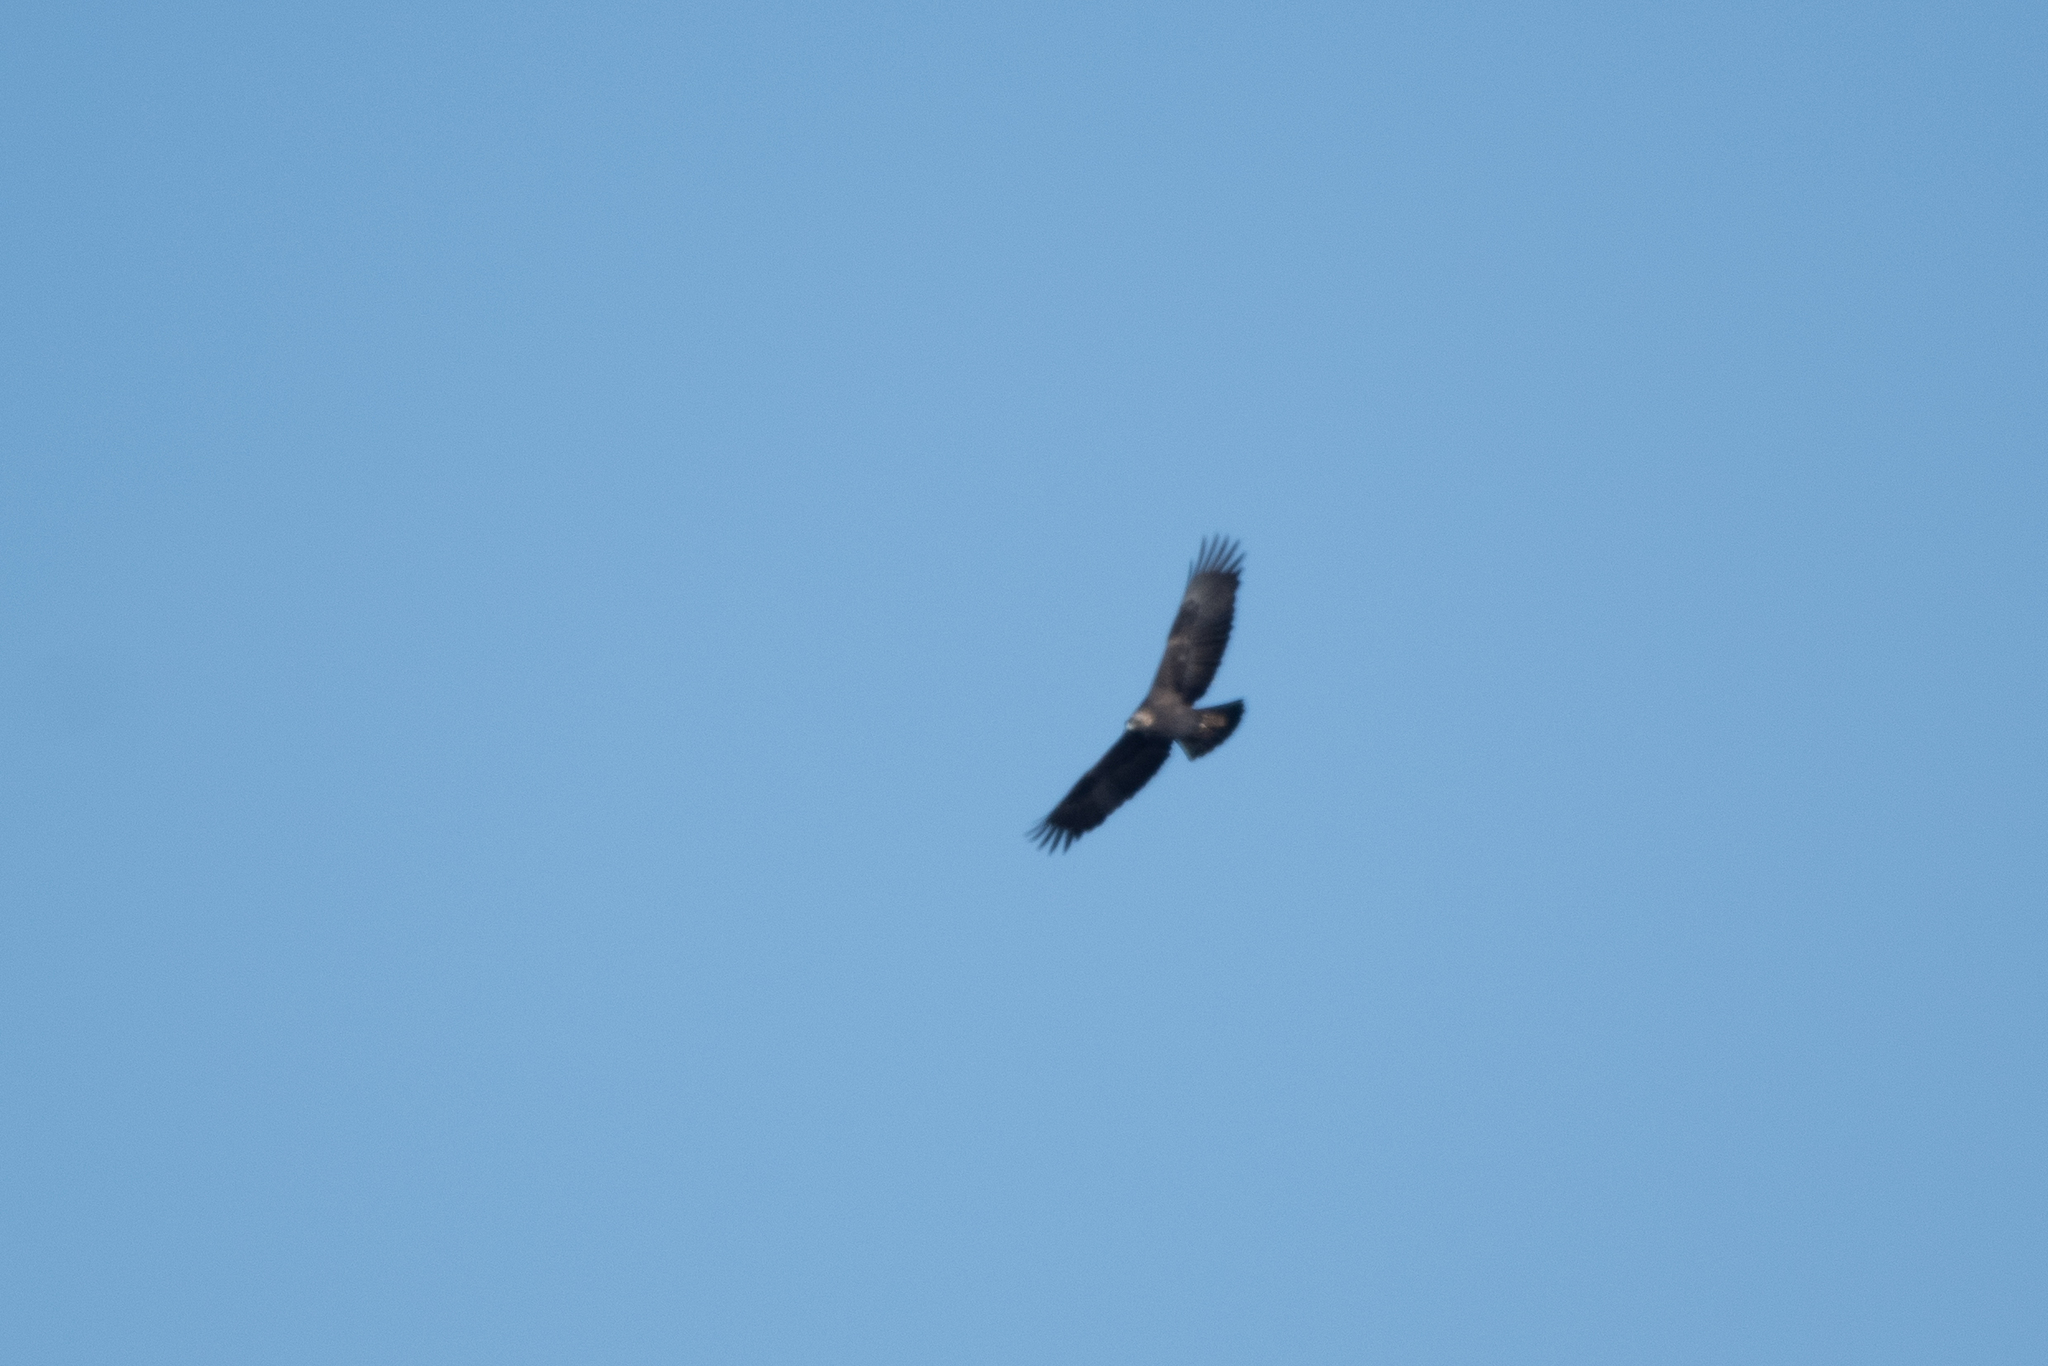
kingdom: Animalia
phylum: Chordata
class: Aves
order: Accipitriformes
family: Accipitridae
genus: Aquila
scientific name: Aquila chrysaetos
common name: Golden eagle
